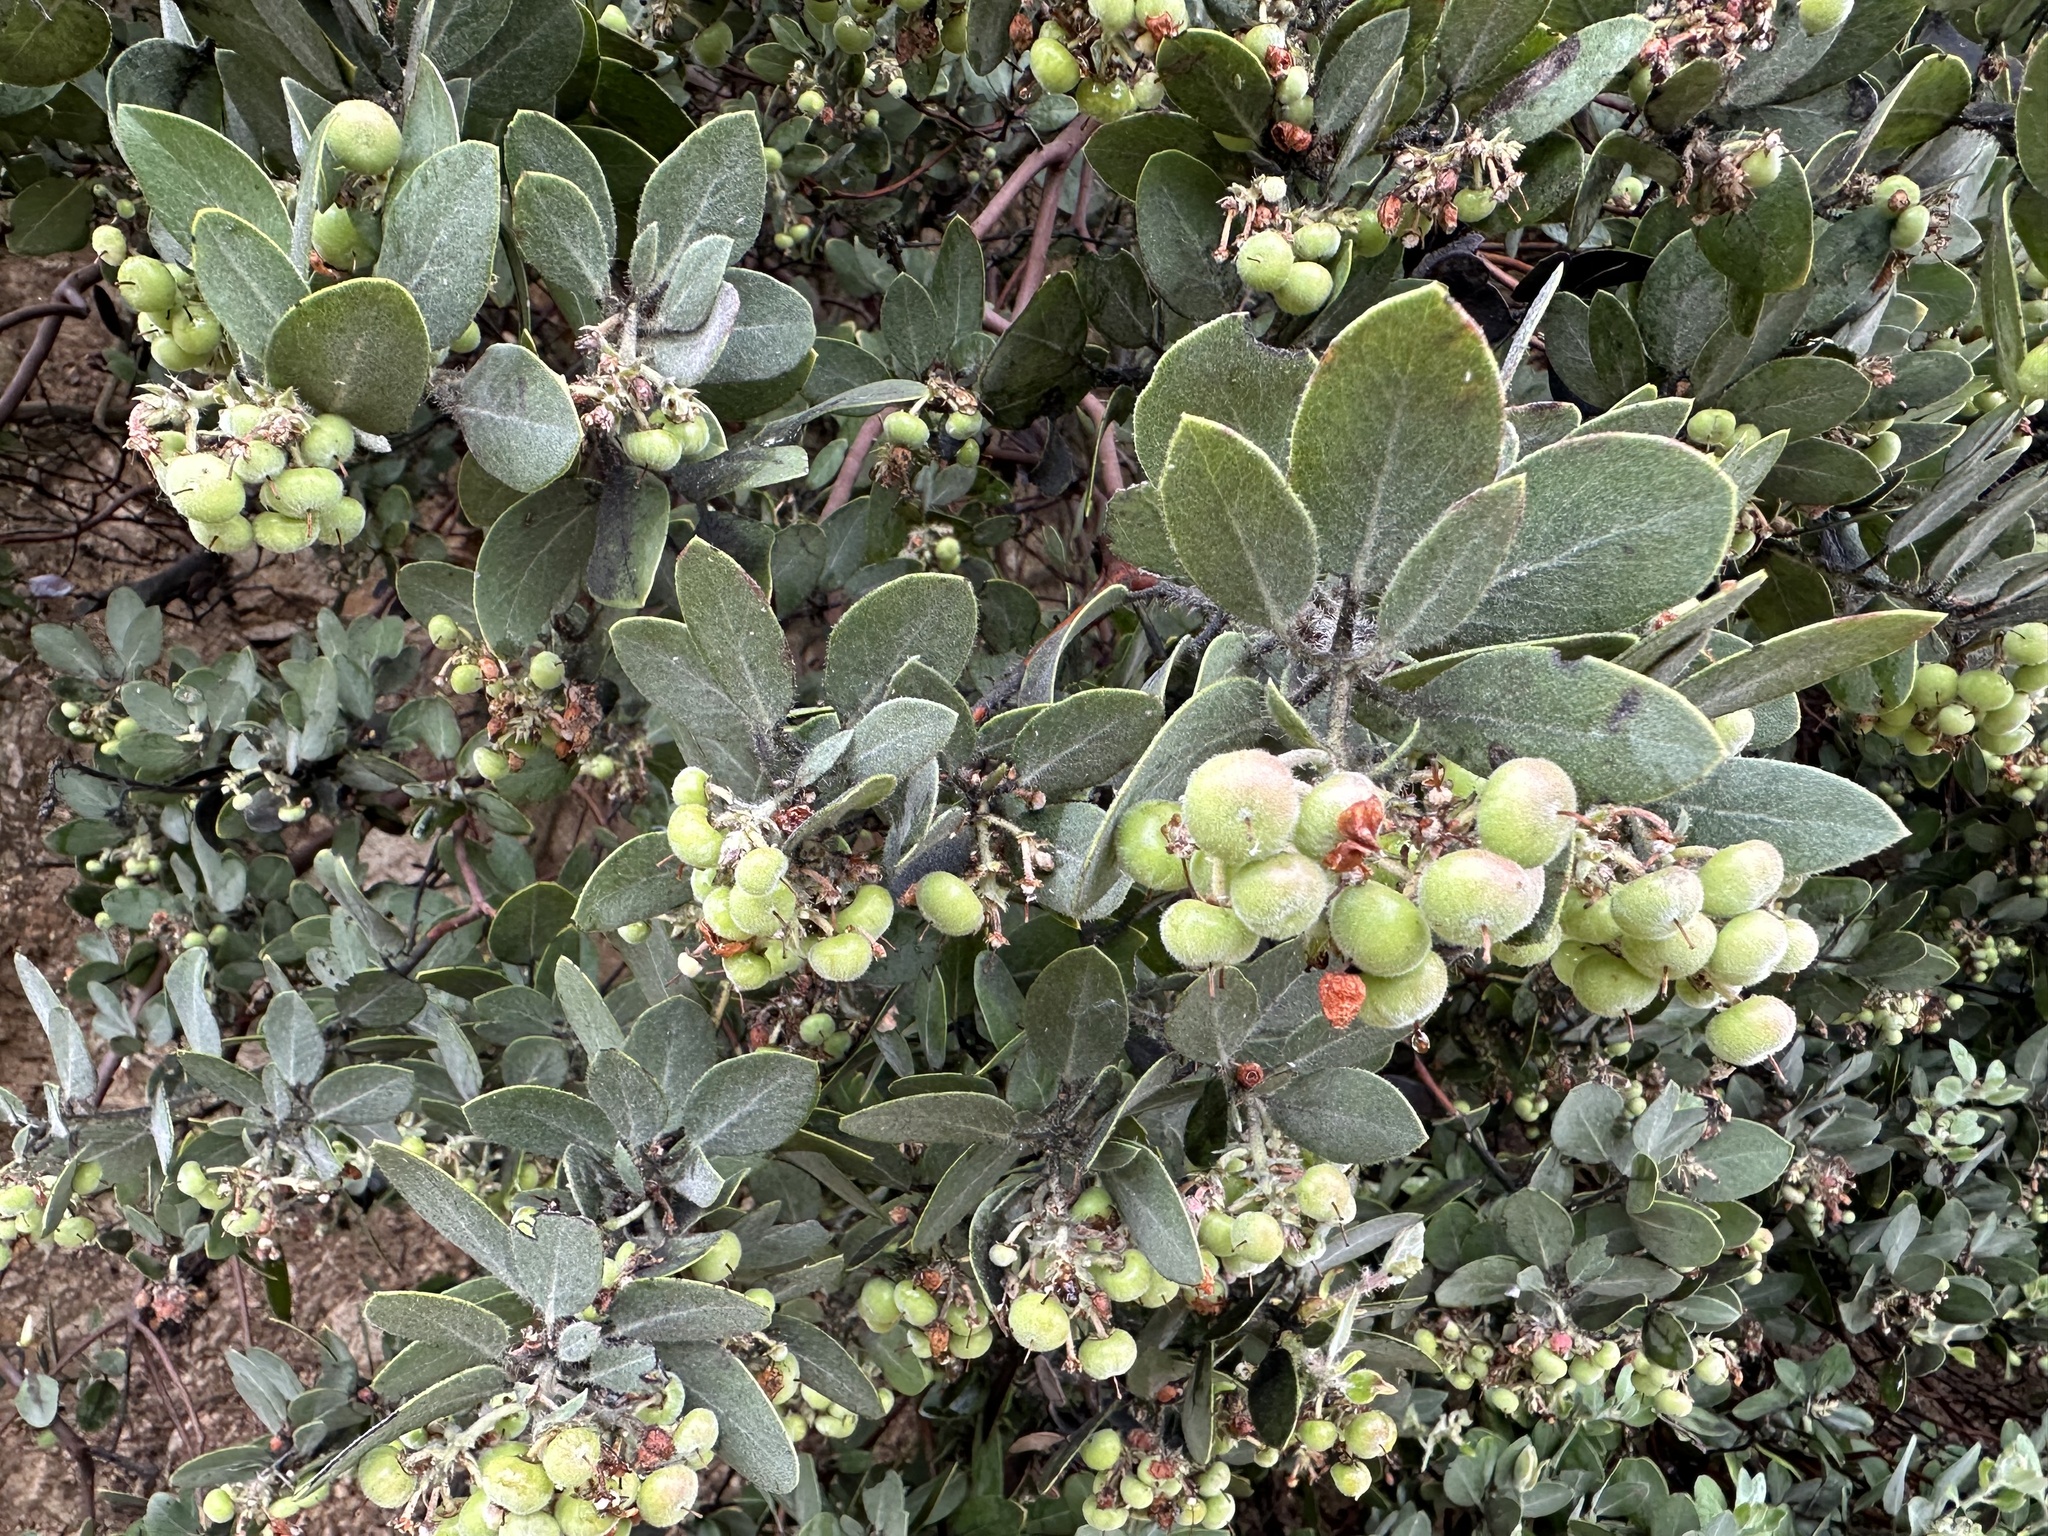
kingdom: Plantae
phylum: Tracheophyta
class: Magnoliopsida
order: Ericales
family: Ericaceae
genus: Arctostaphylos
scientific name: Arctostaphylos glandulosa
